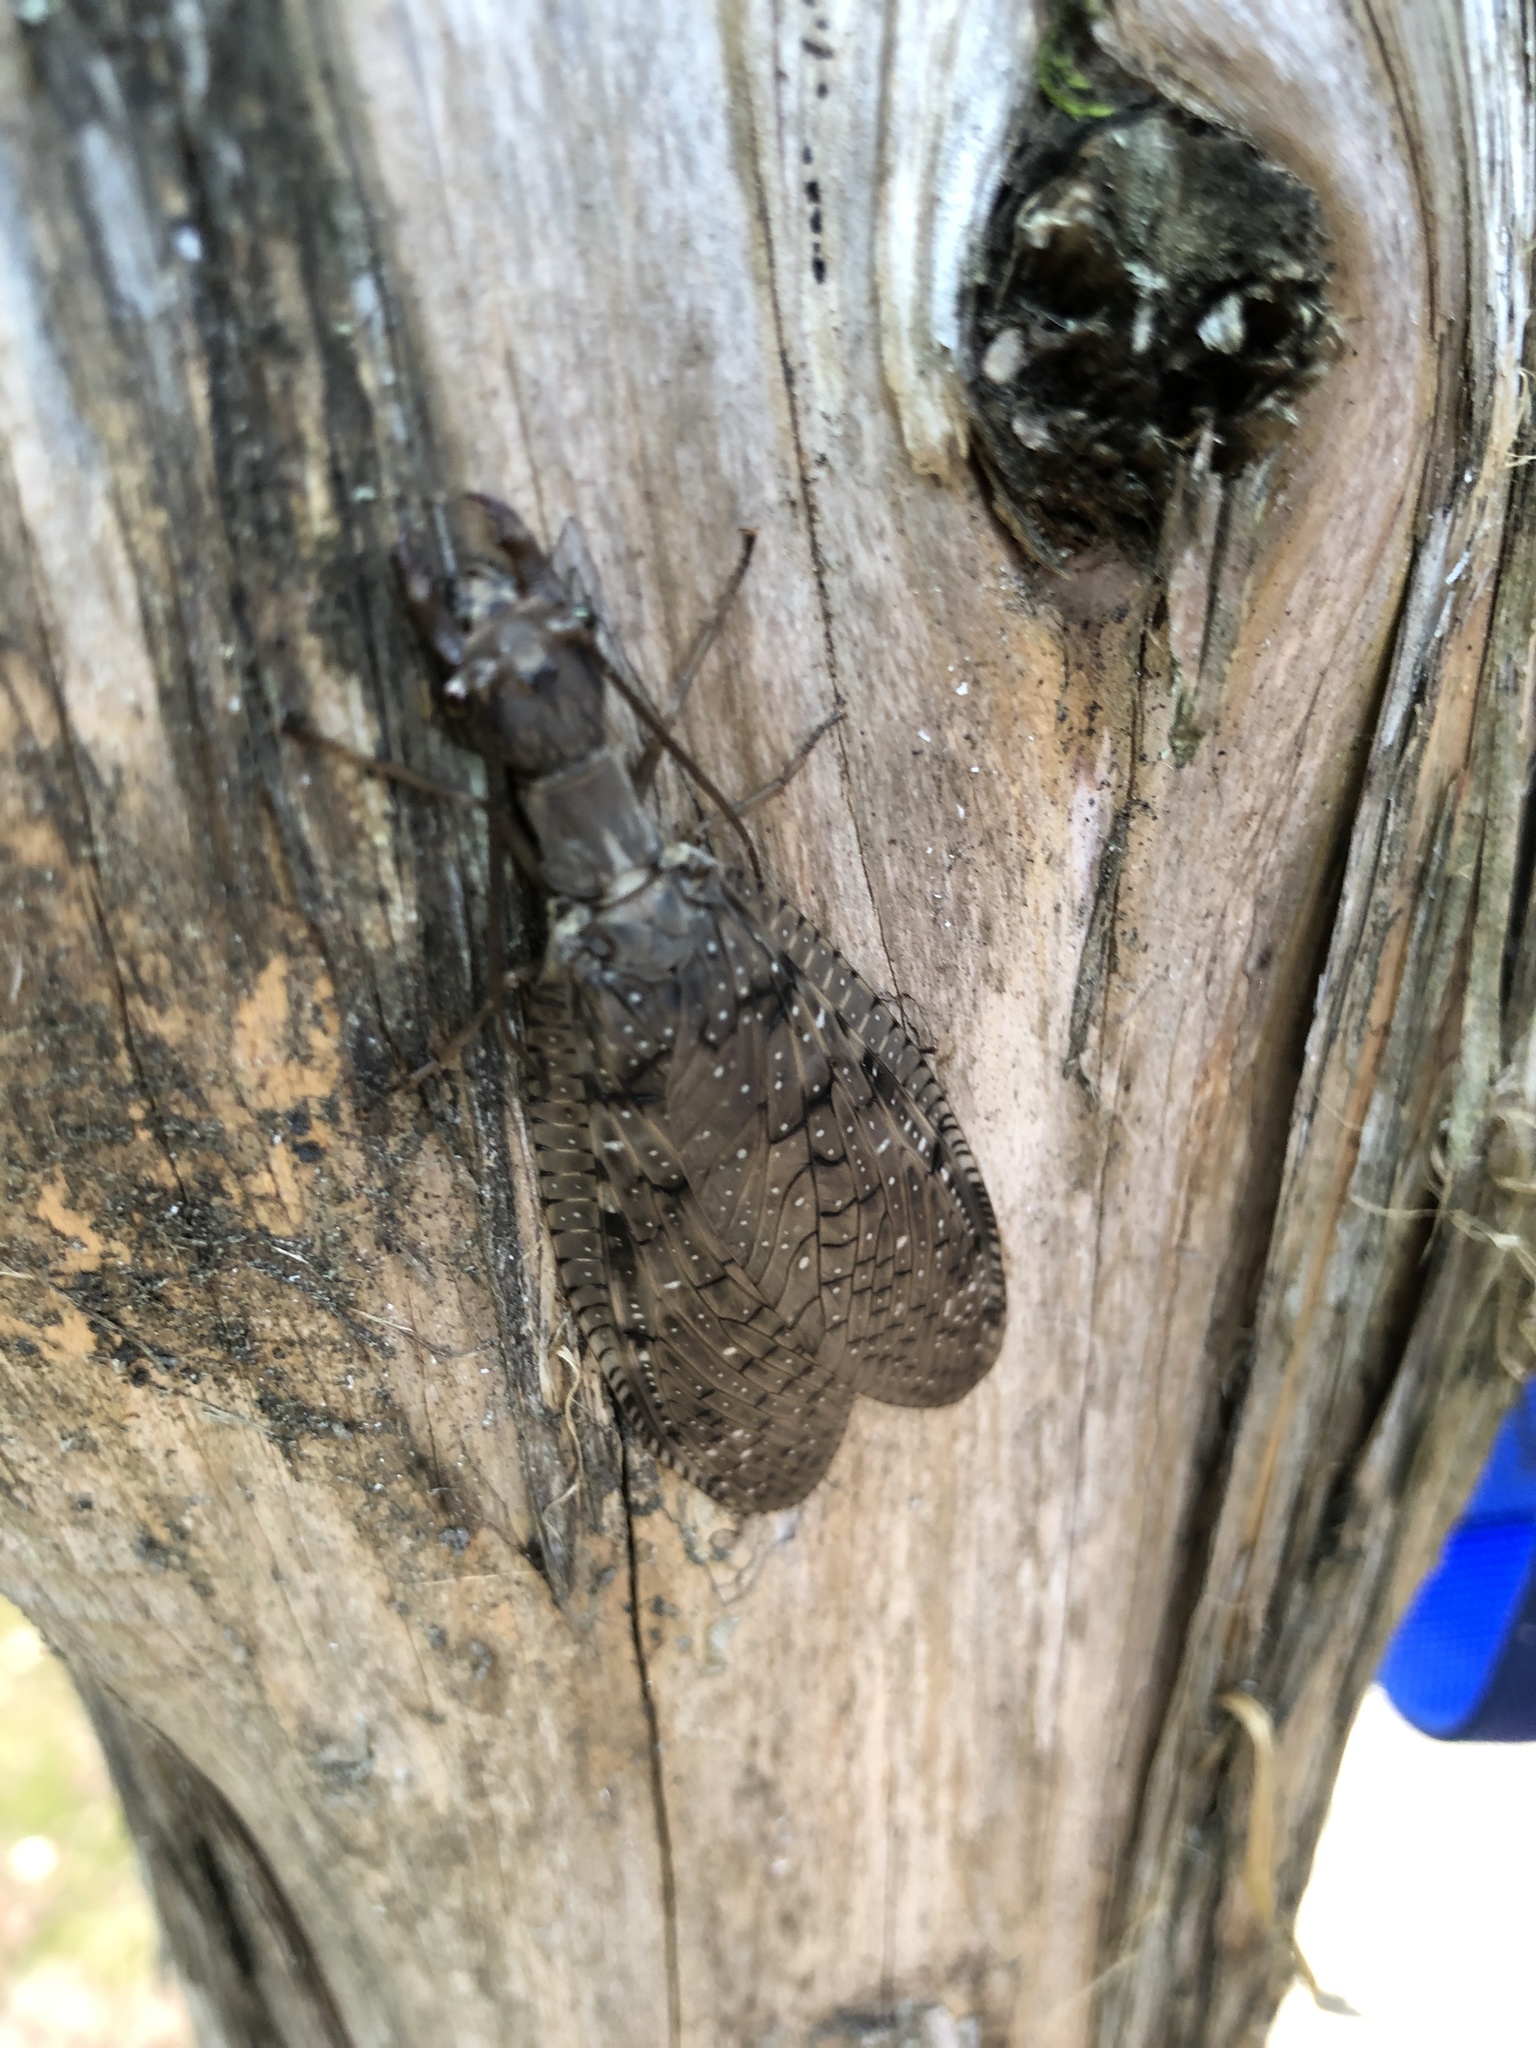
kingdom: Animalia
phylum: Arthropoda
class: Insecta
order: Megaloptera
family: Corydalidae
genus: Corydalus
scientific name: Corydalus cornutus
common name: Dobsonfly
